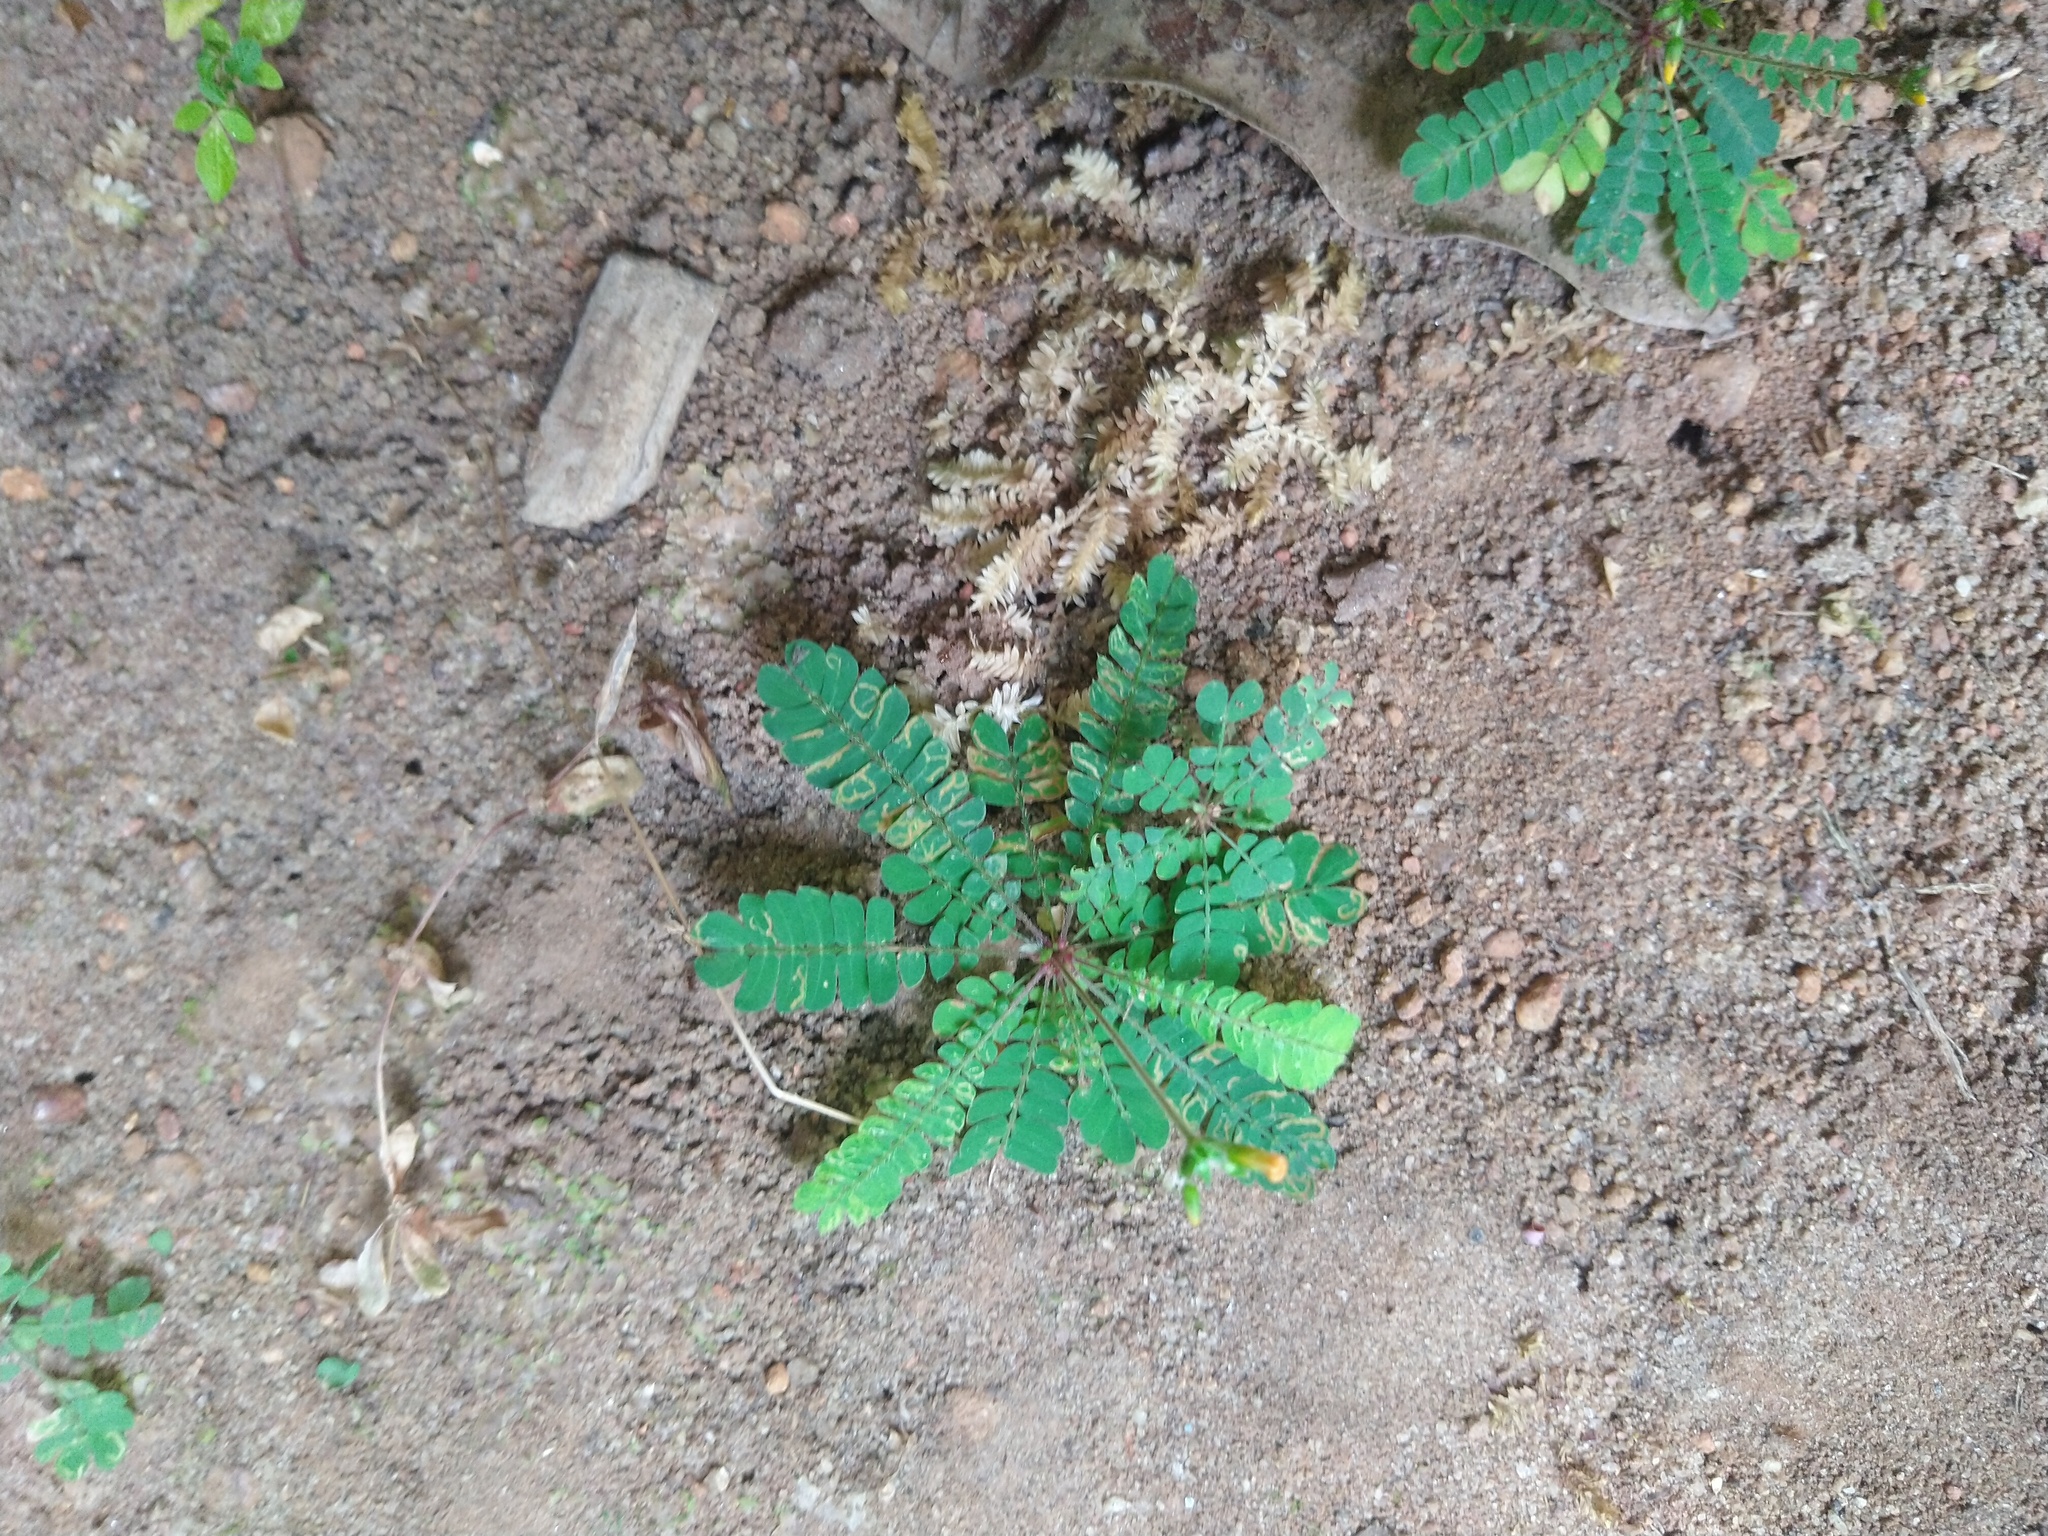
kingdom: Plantae
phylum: Tracheophyta
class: Magnoliopsida
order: Oxalidales
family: Oxalidaceae
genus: Biophytum
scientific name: Biophytum sensitivum
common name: Lifeplant
